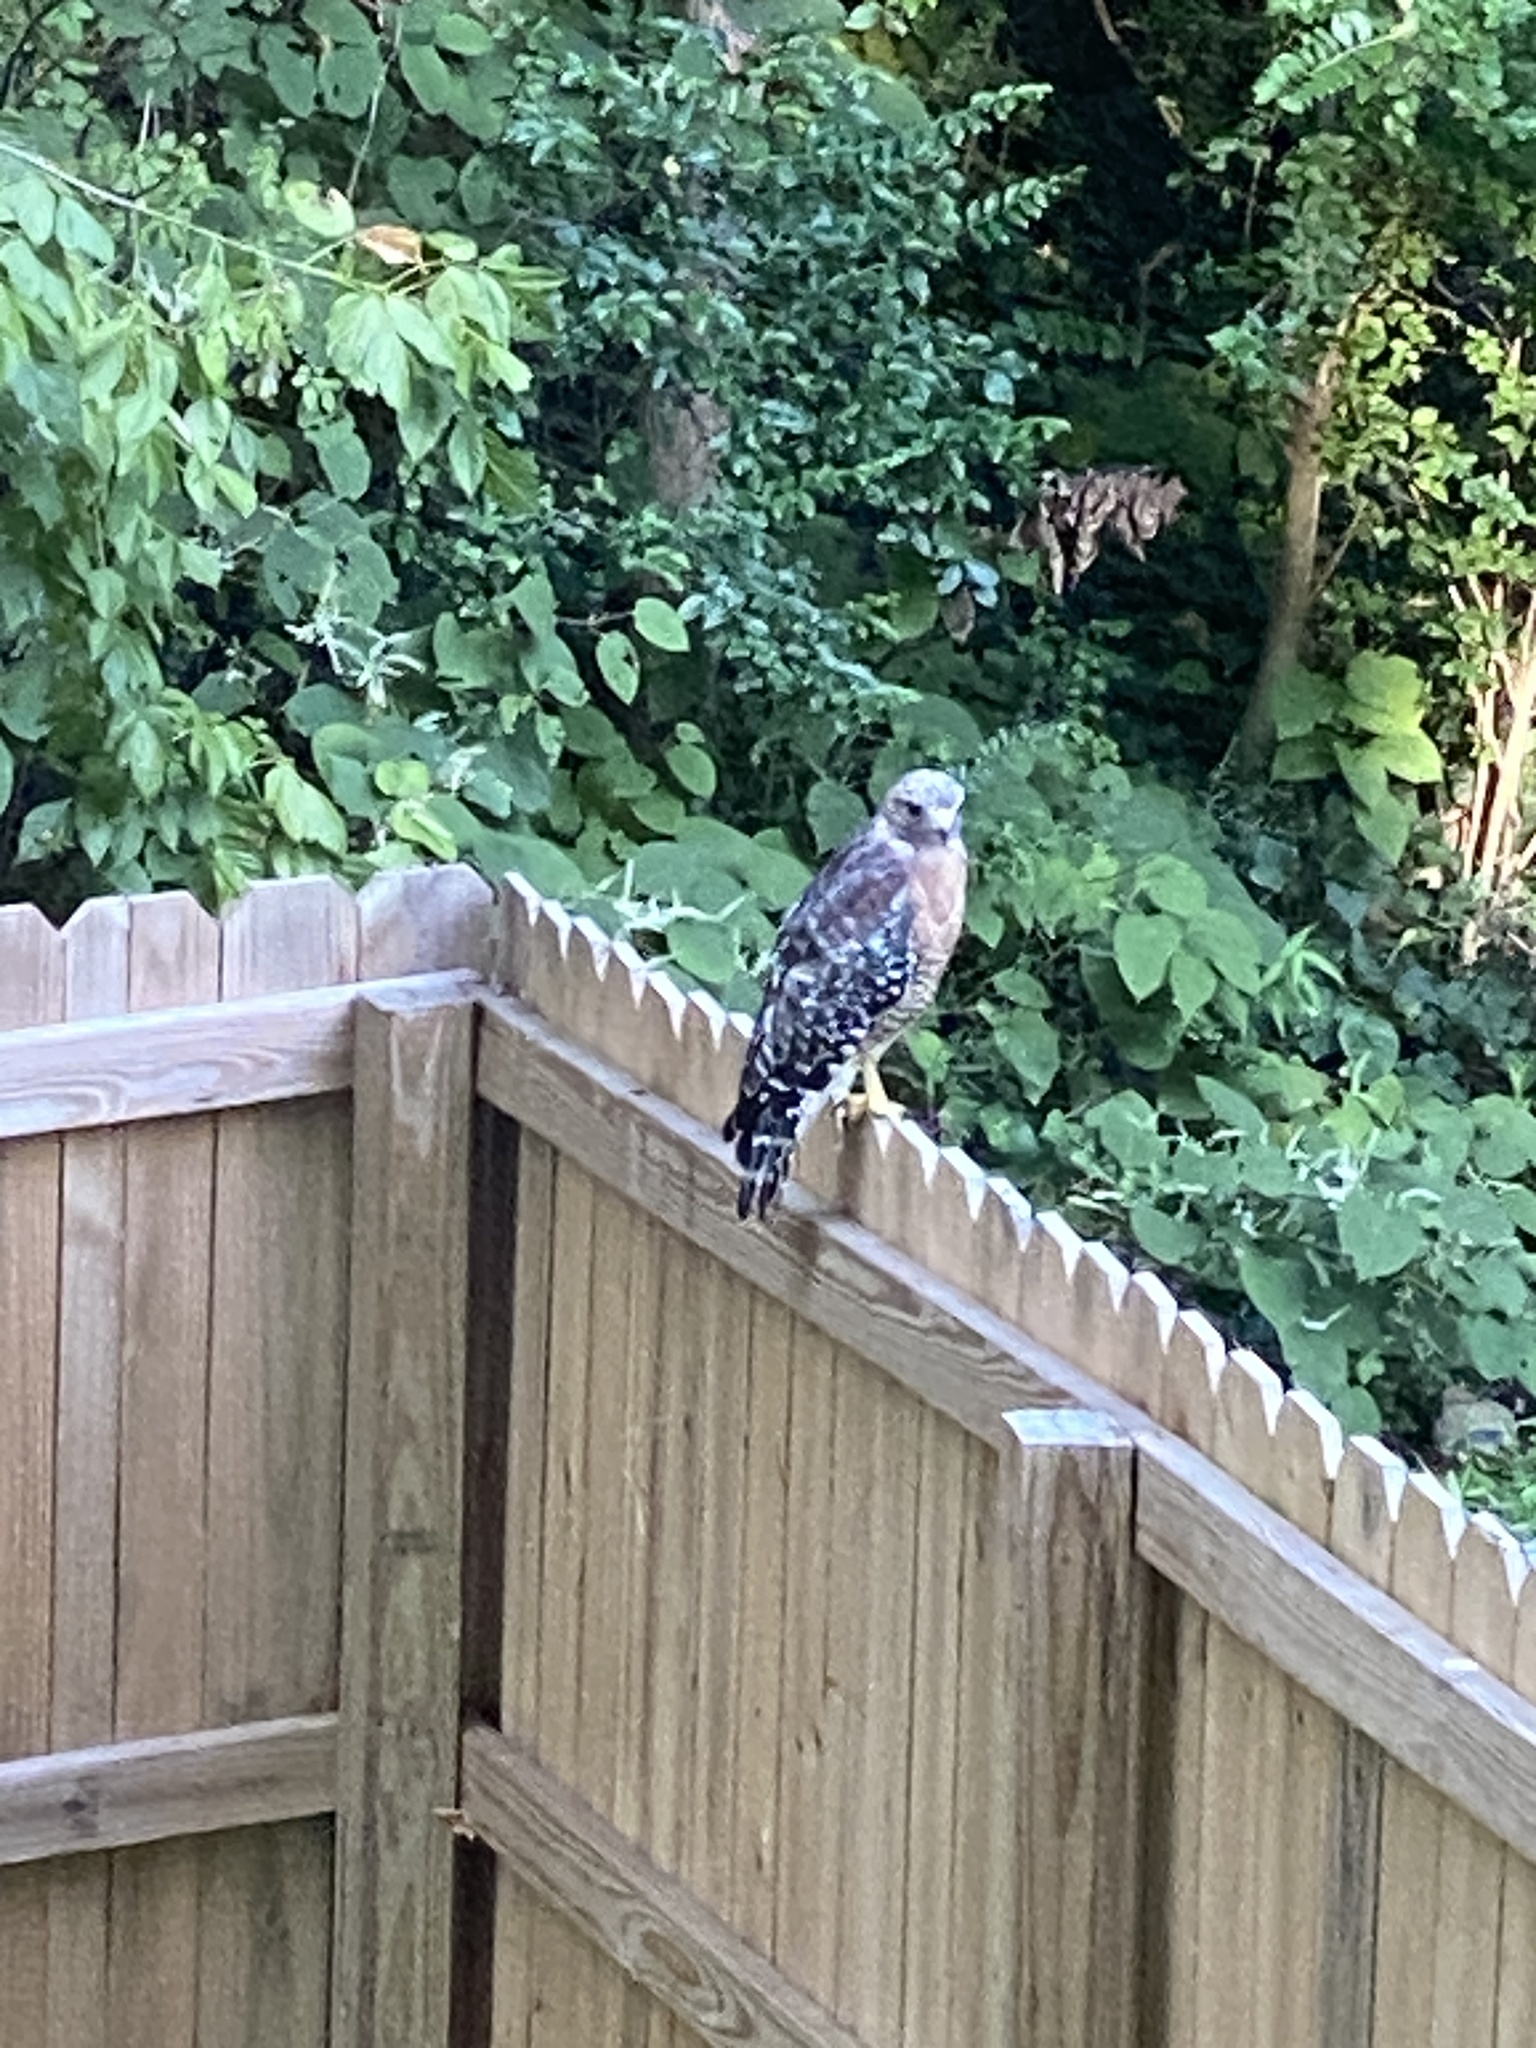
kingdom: Animalia
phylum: Chordata
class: Aves
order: Accipitriformes
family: Accipitridae
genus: Buteo
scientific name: Buteo lineatus
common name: Red-shouldered hawk
